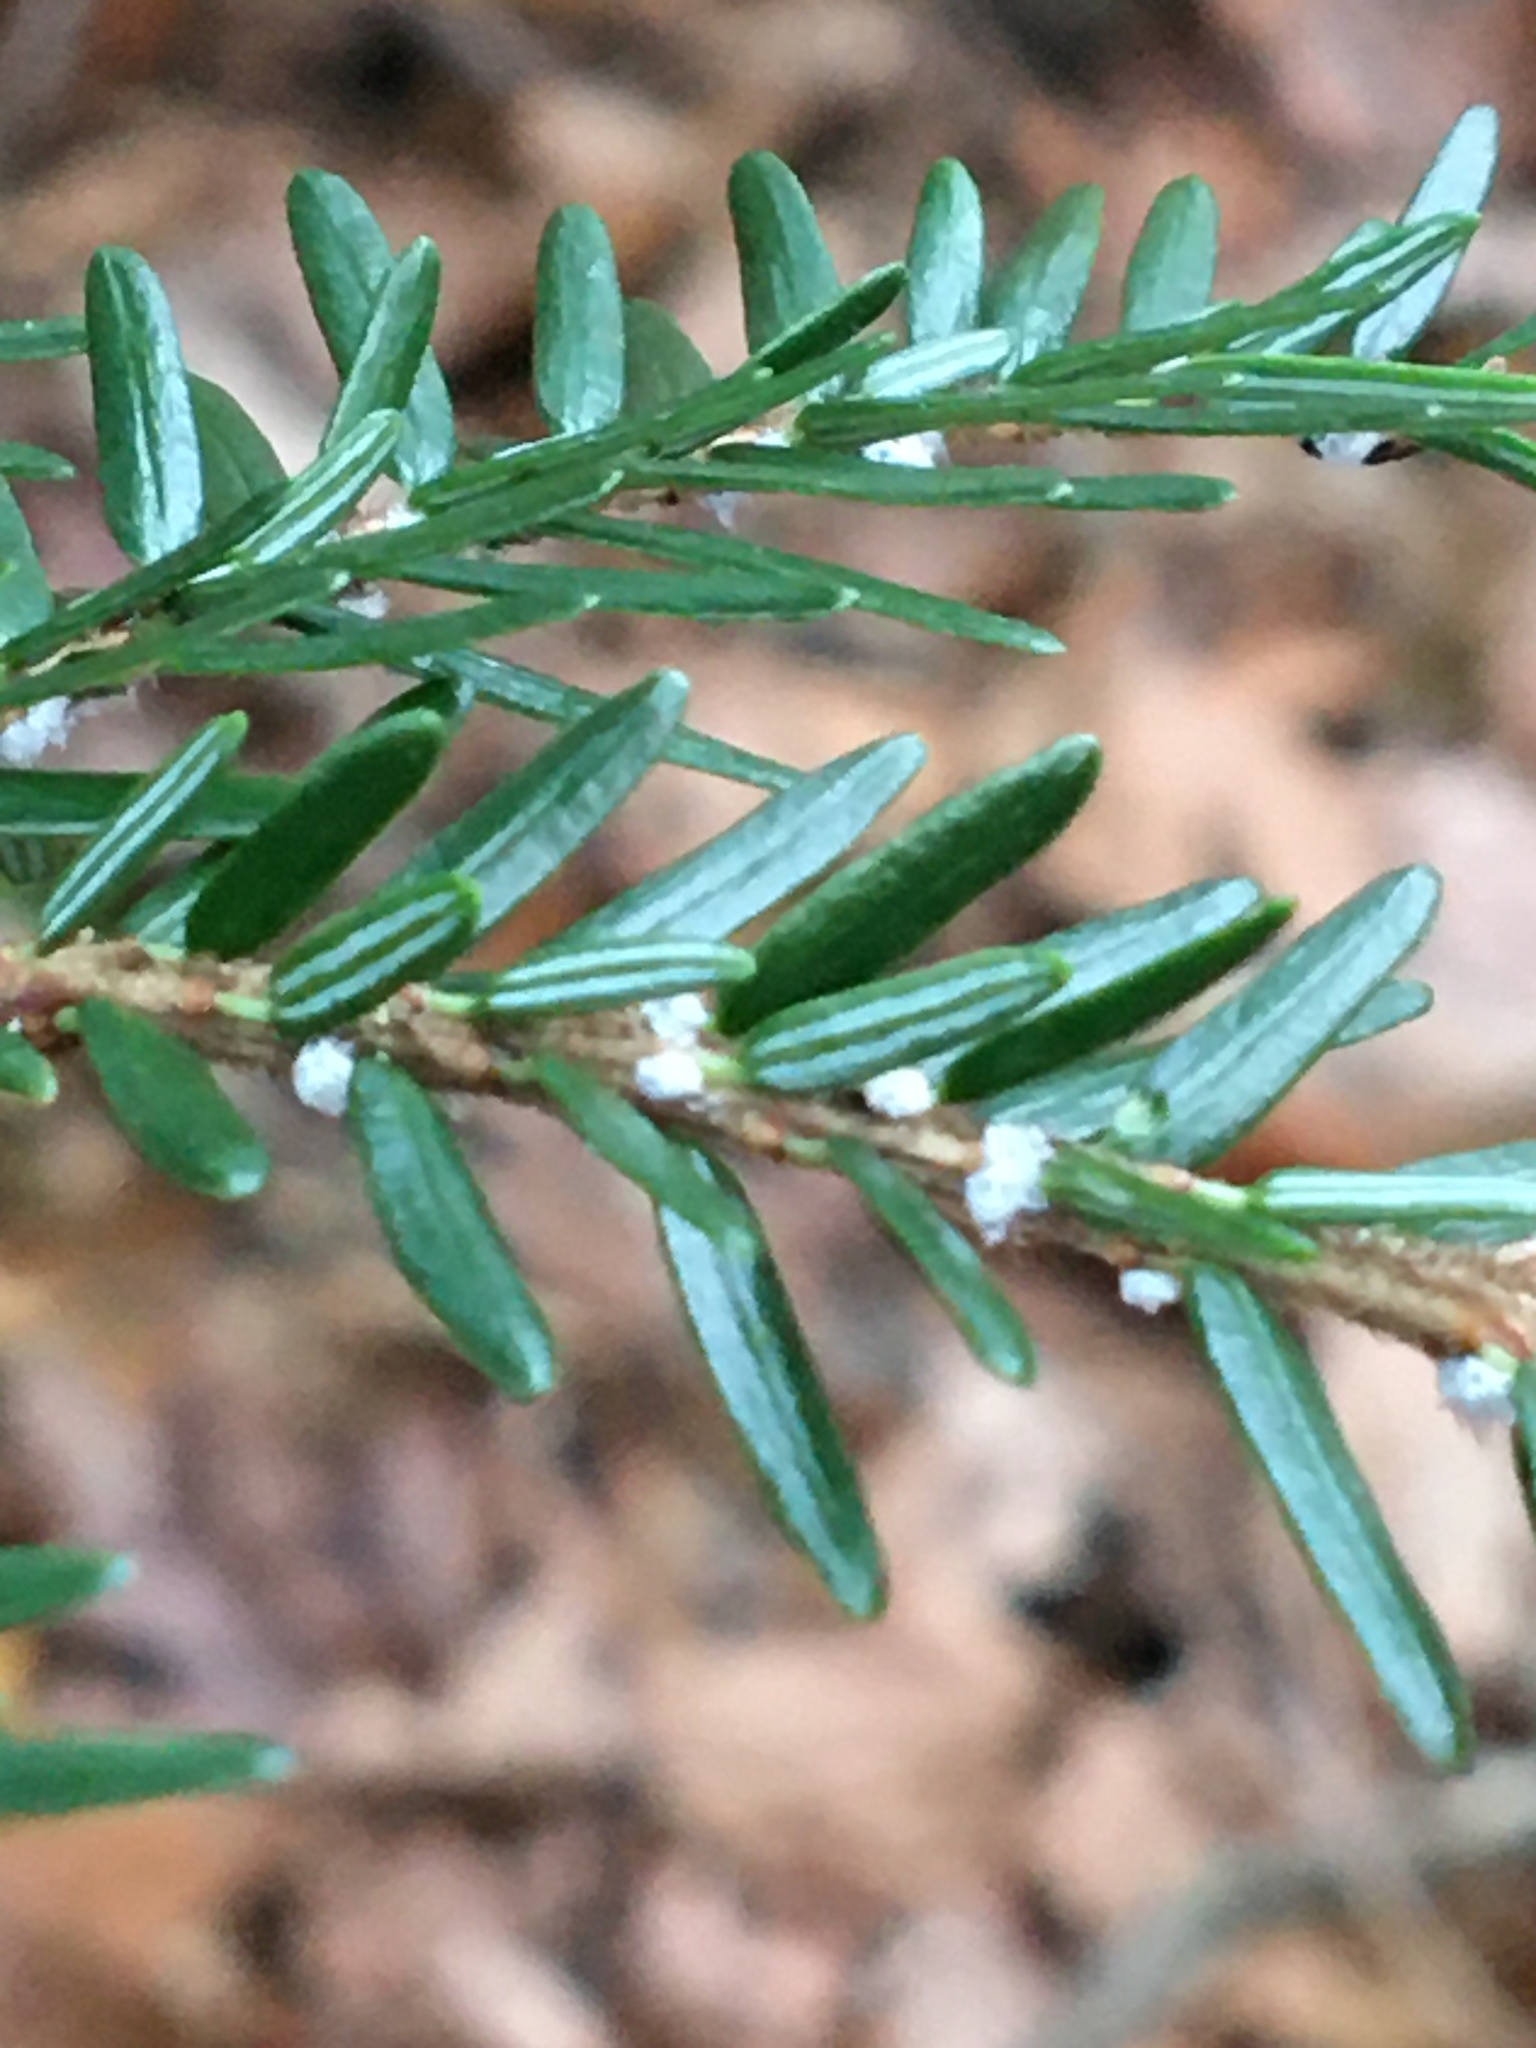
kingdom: Animalia
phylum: Arthropoda
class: Insecta
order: Hemiptera
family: Adelgidae
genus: Adelges
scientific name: Adelges tsugae
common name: Hemlock woolly adelgid
